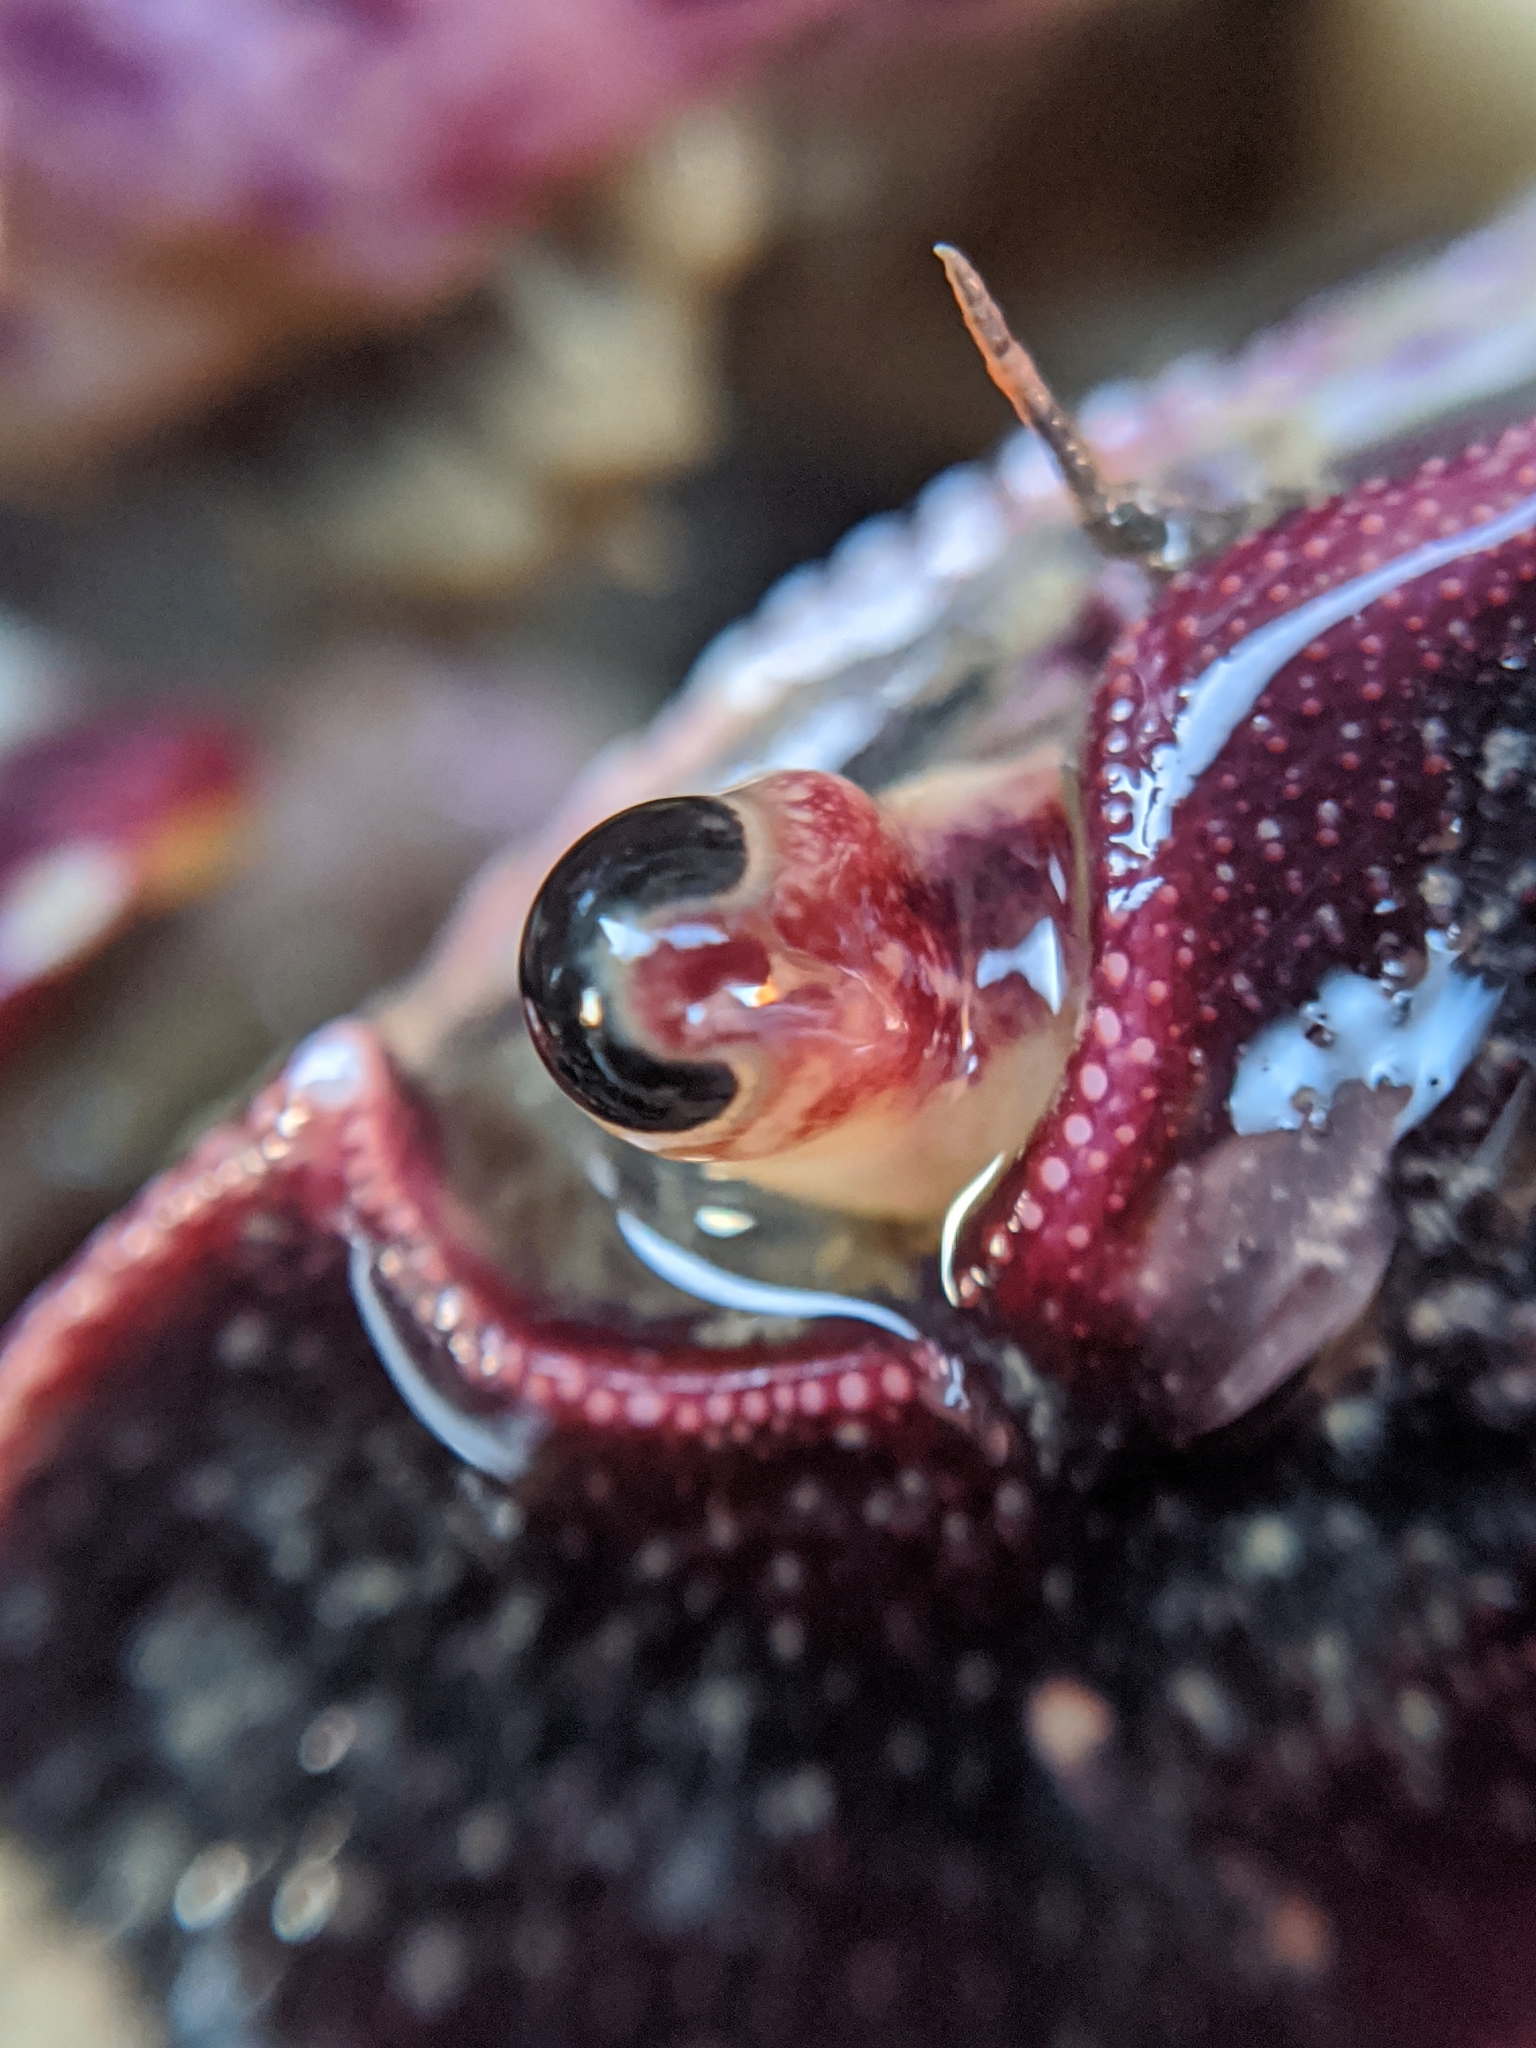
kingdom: Animalia
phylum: Arthropoda
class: Malacostraca
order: Decapoda
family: Varunidae
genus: Hemigrapsus
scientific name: Hemigrapsus nudus
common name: Purple shore crab
